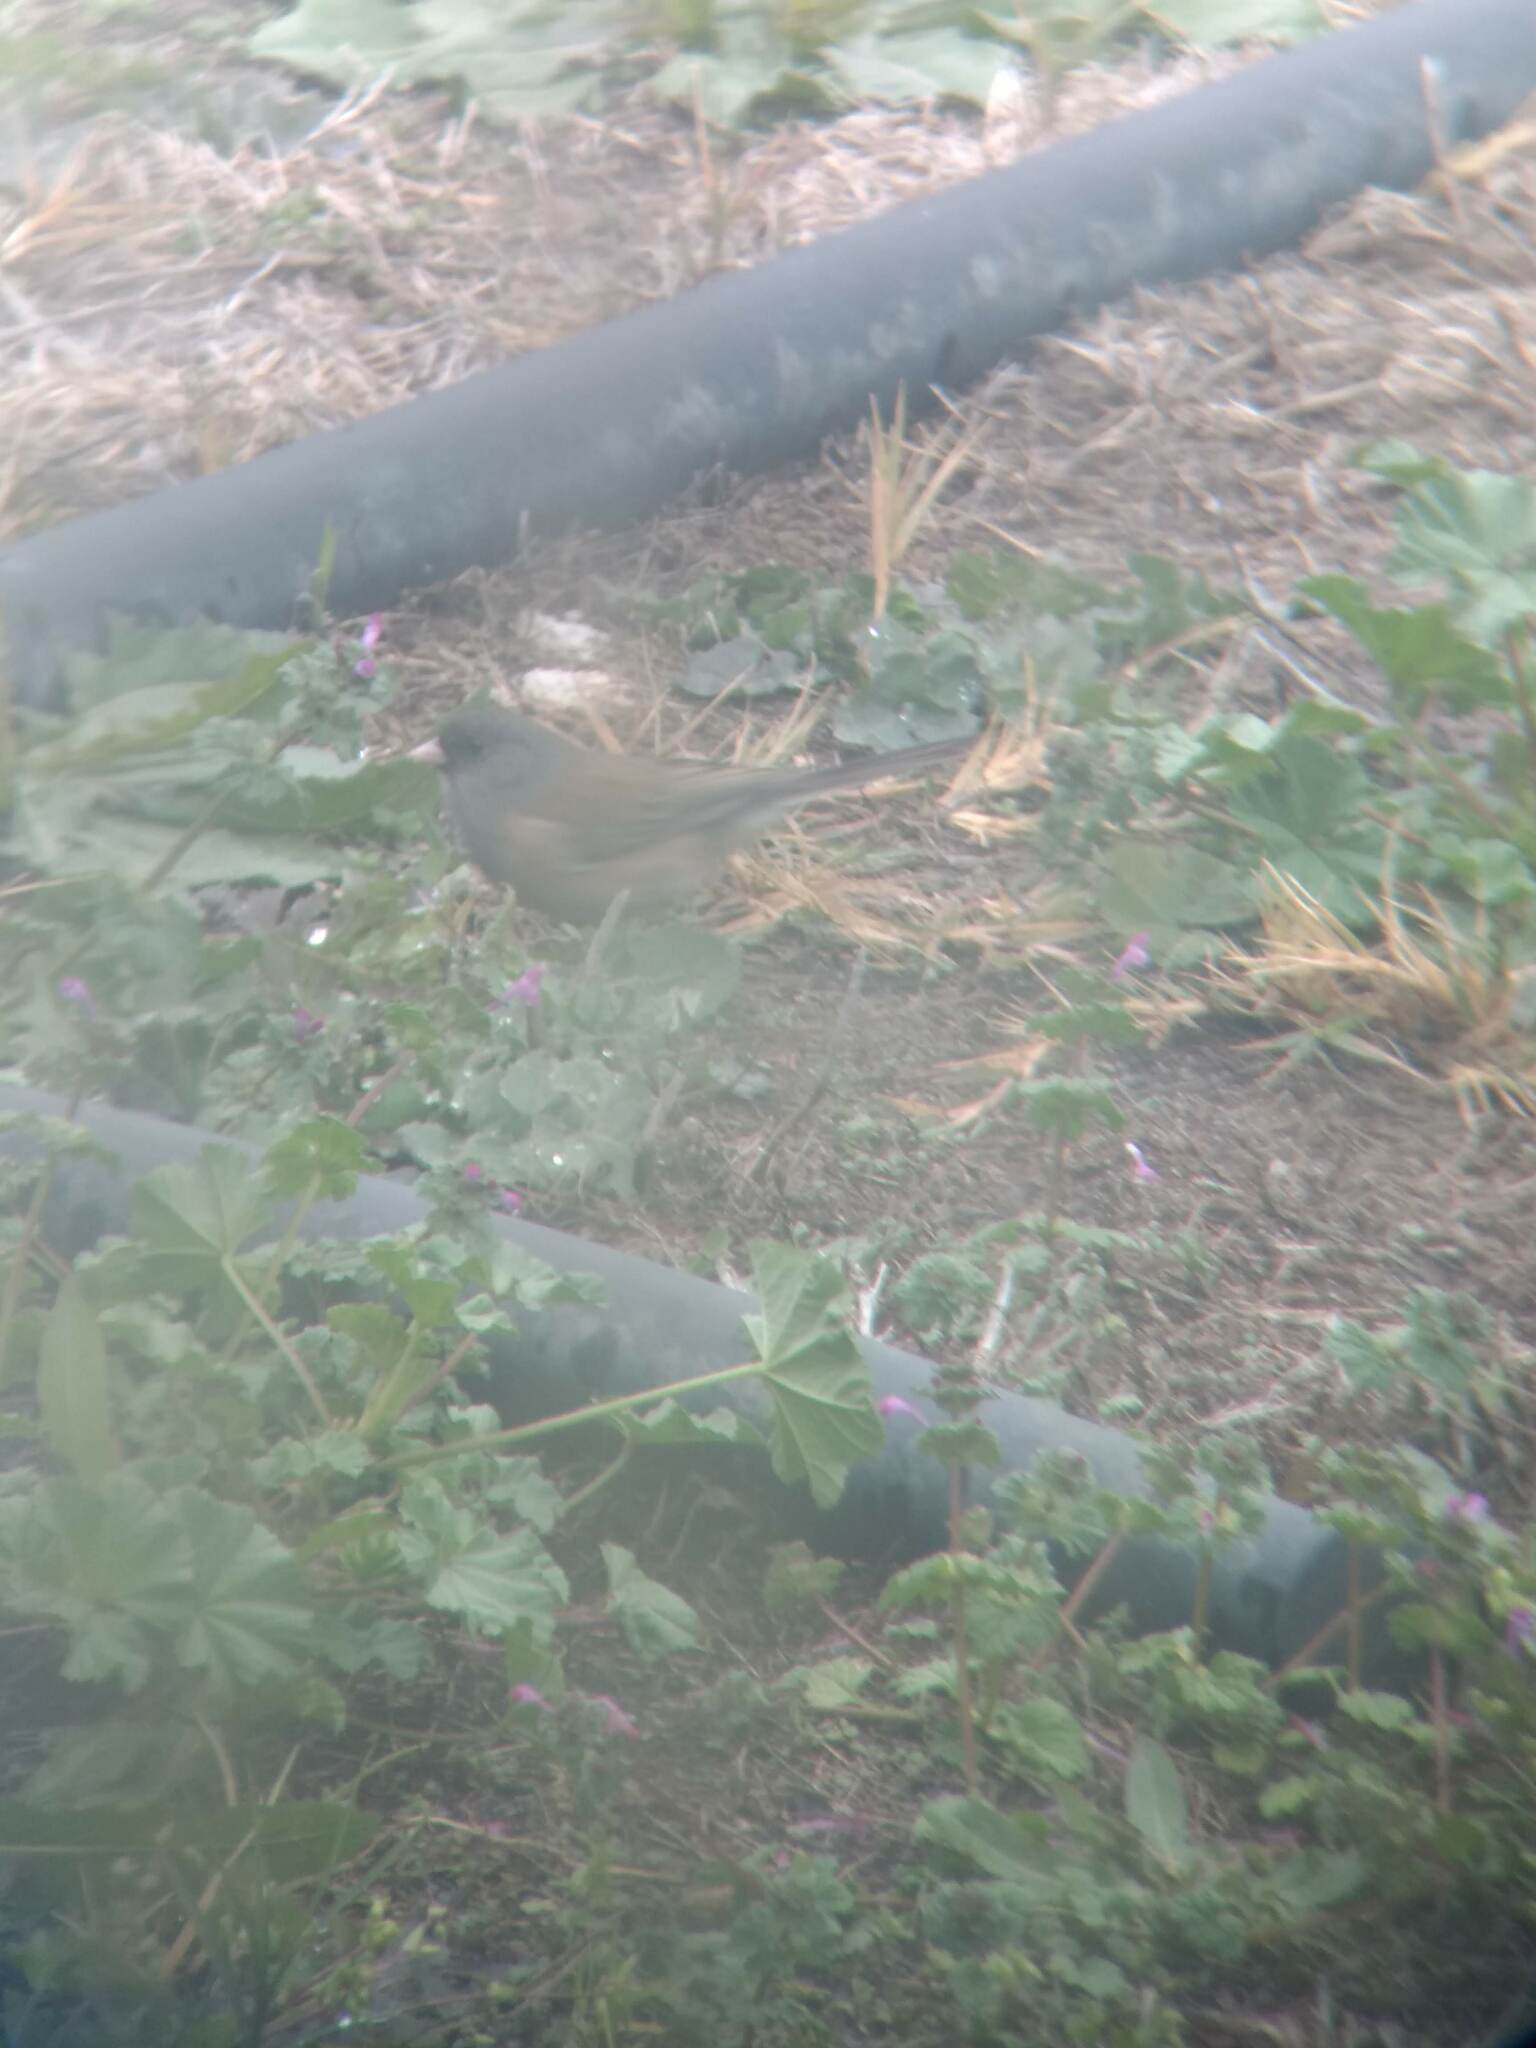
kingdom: Animalia
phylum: Chordata
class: Aves
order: Passeriformes
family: Passerellidae
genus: Junco
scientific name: Junco hyemalis
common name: Dark-eyed junco
